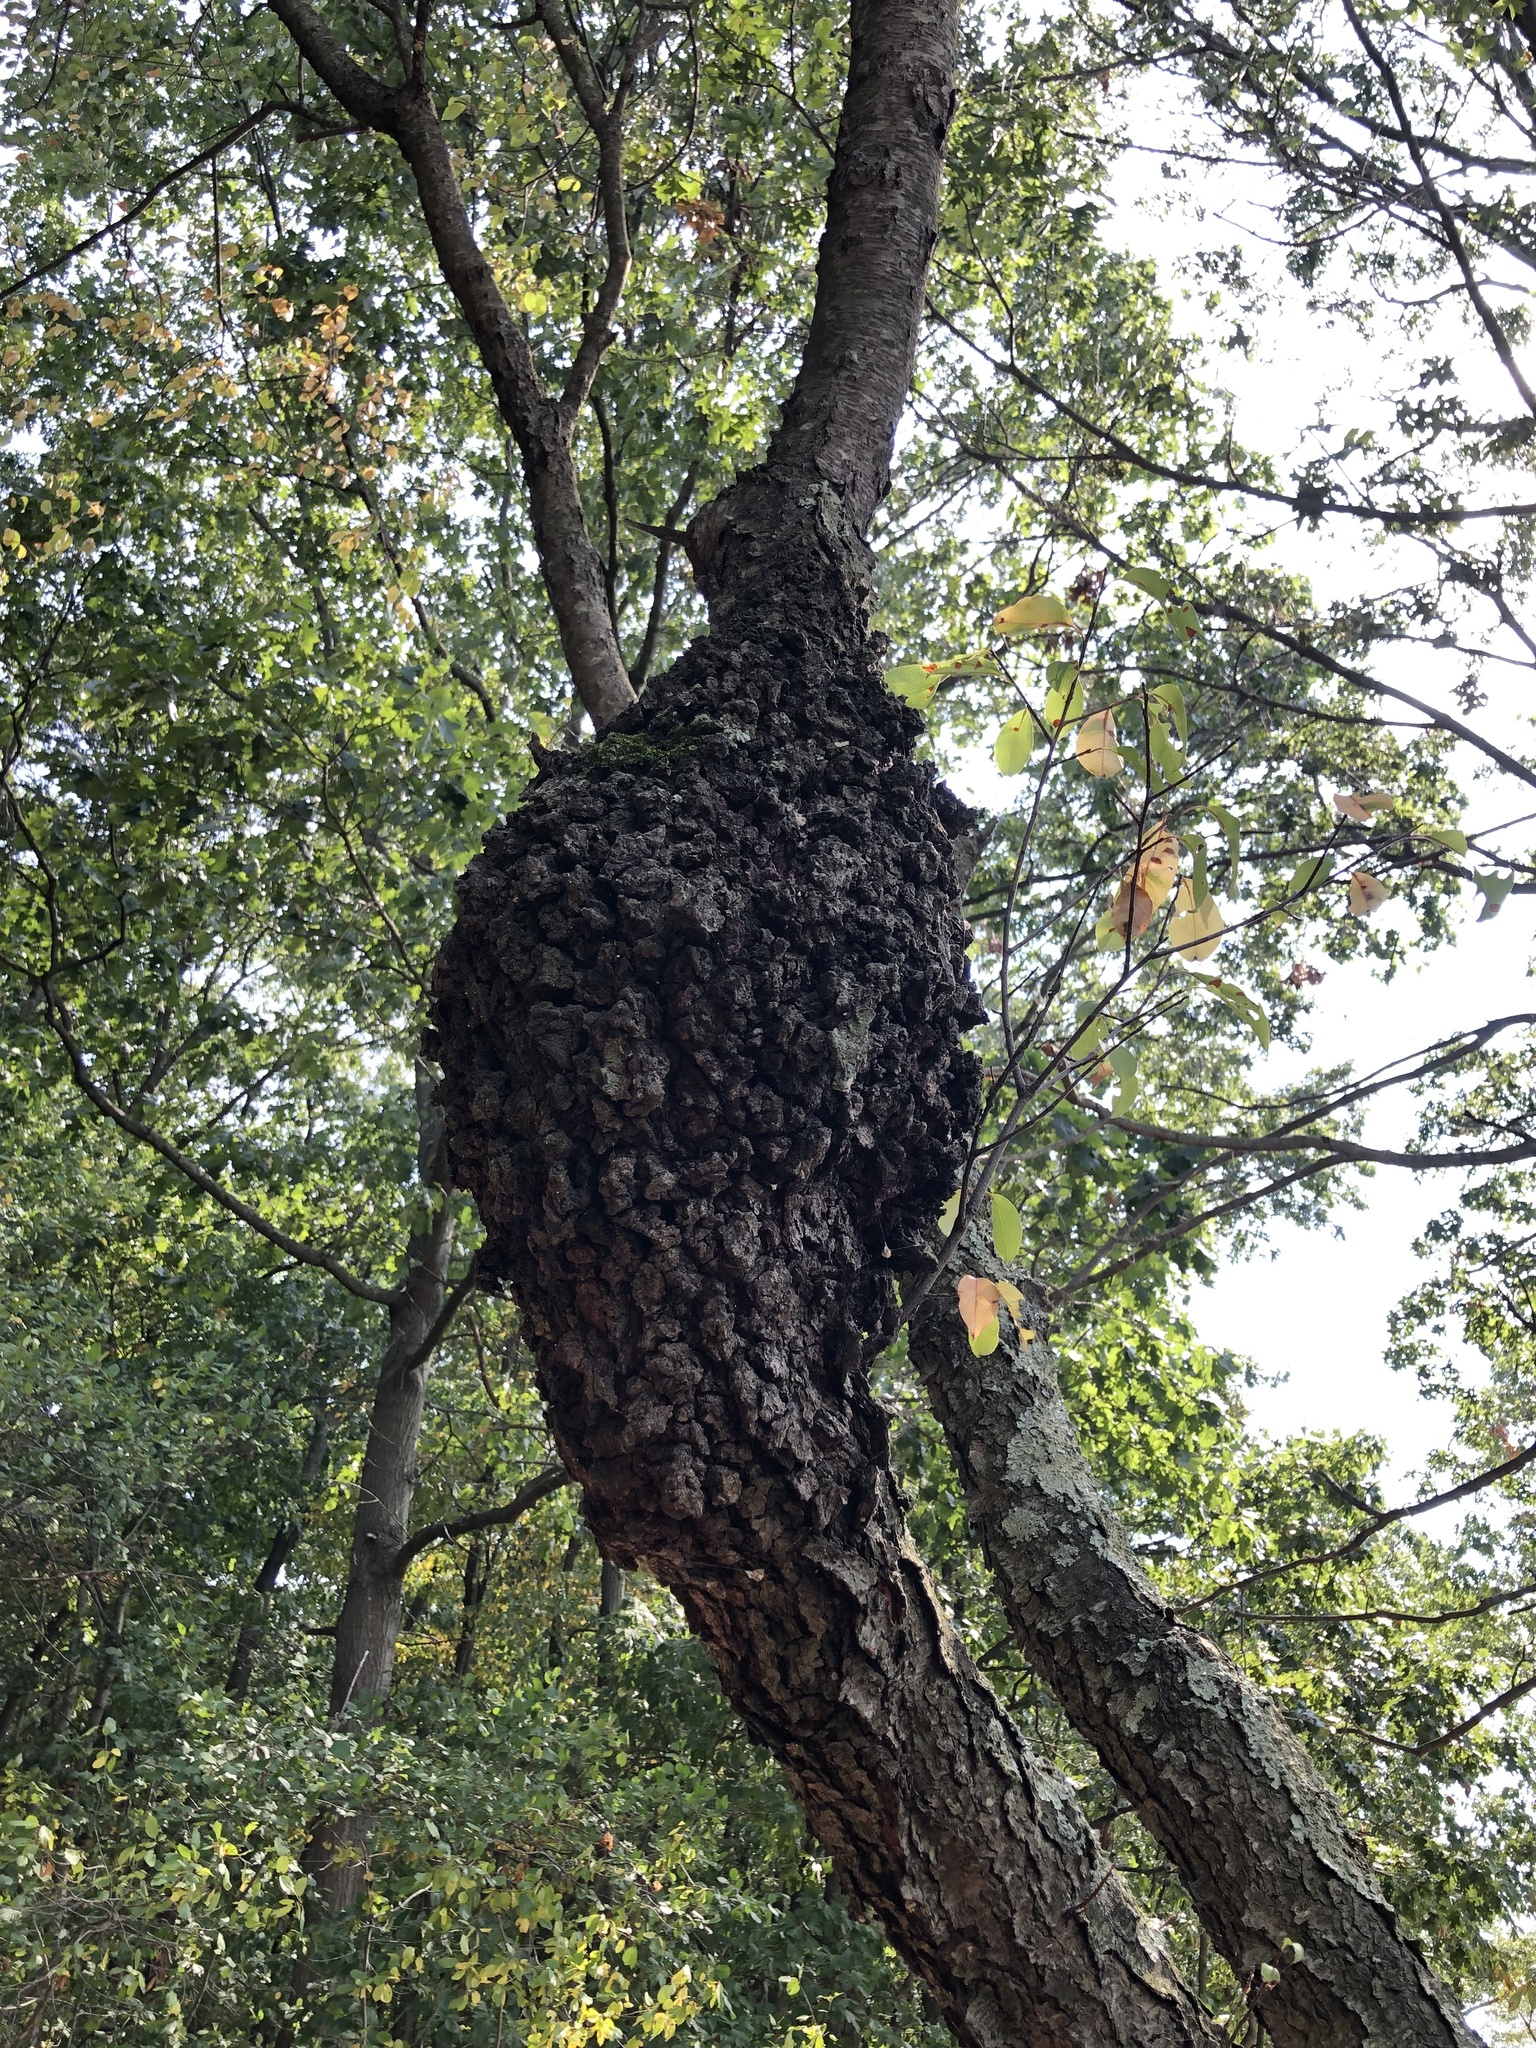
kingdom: Bacteria
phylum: Proteobacteria
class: Alphaproteobacteria
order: Rhizobiales
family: Rhizobiaceae
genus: Rhizobium
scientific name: Rhizobium Agrobacterium radiobacter
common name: Bacterial crown gall
